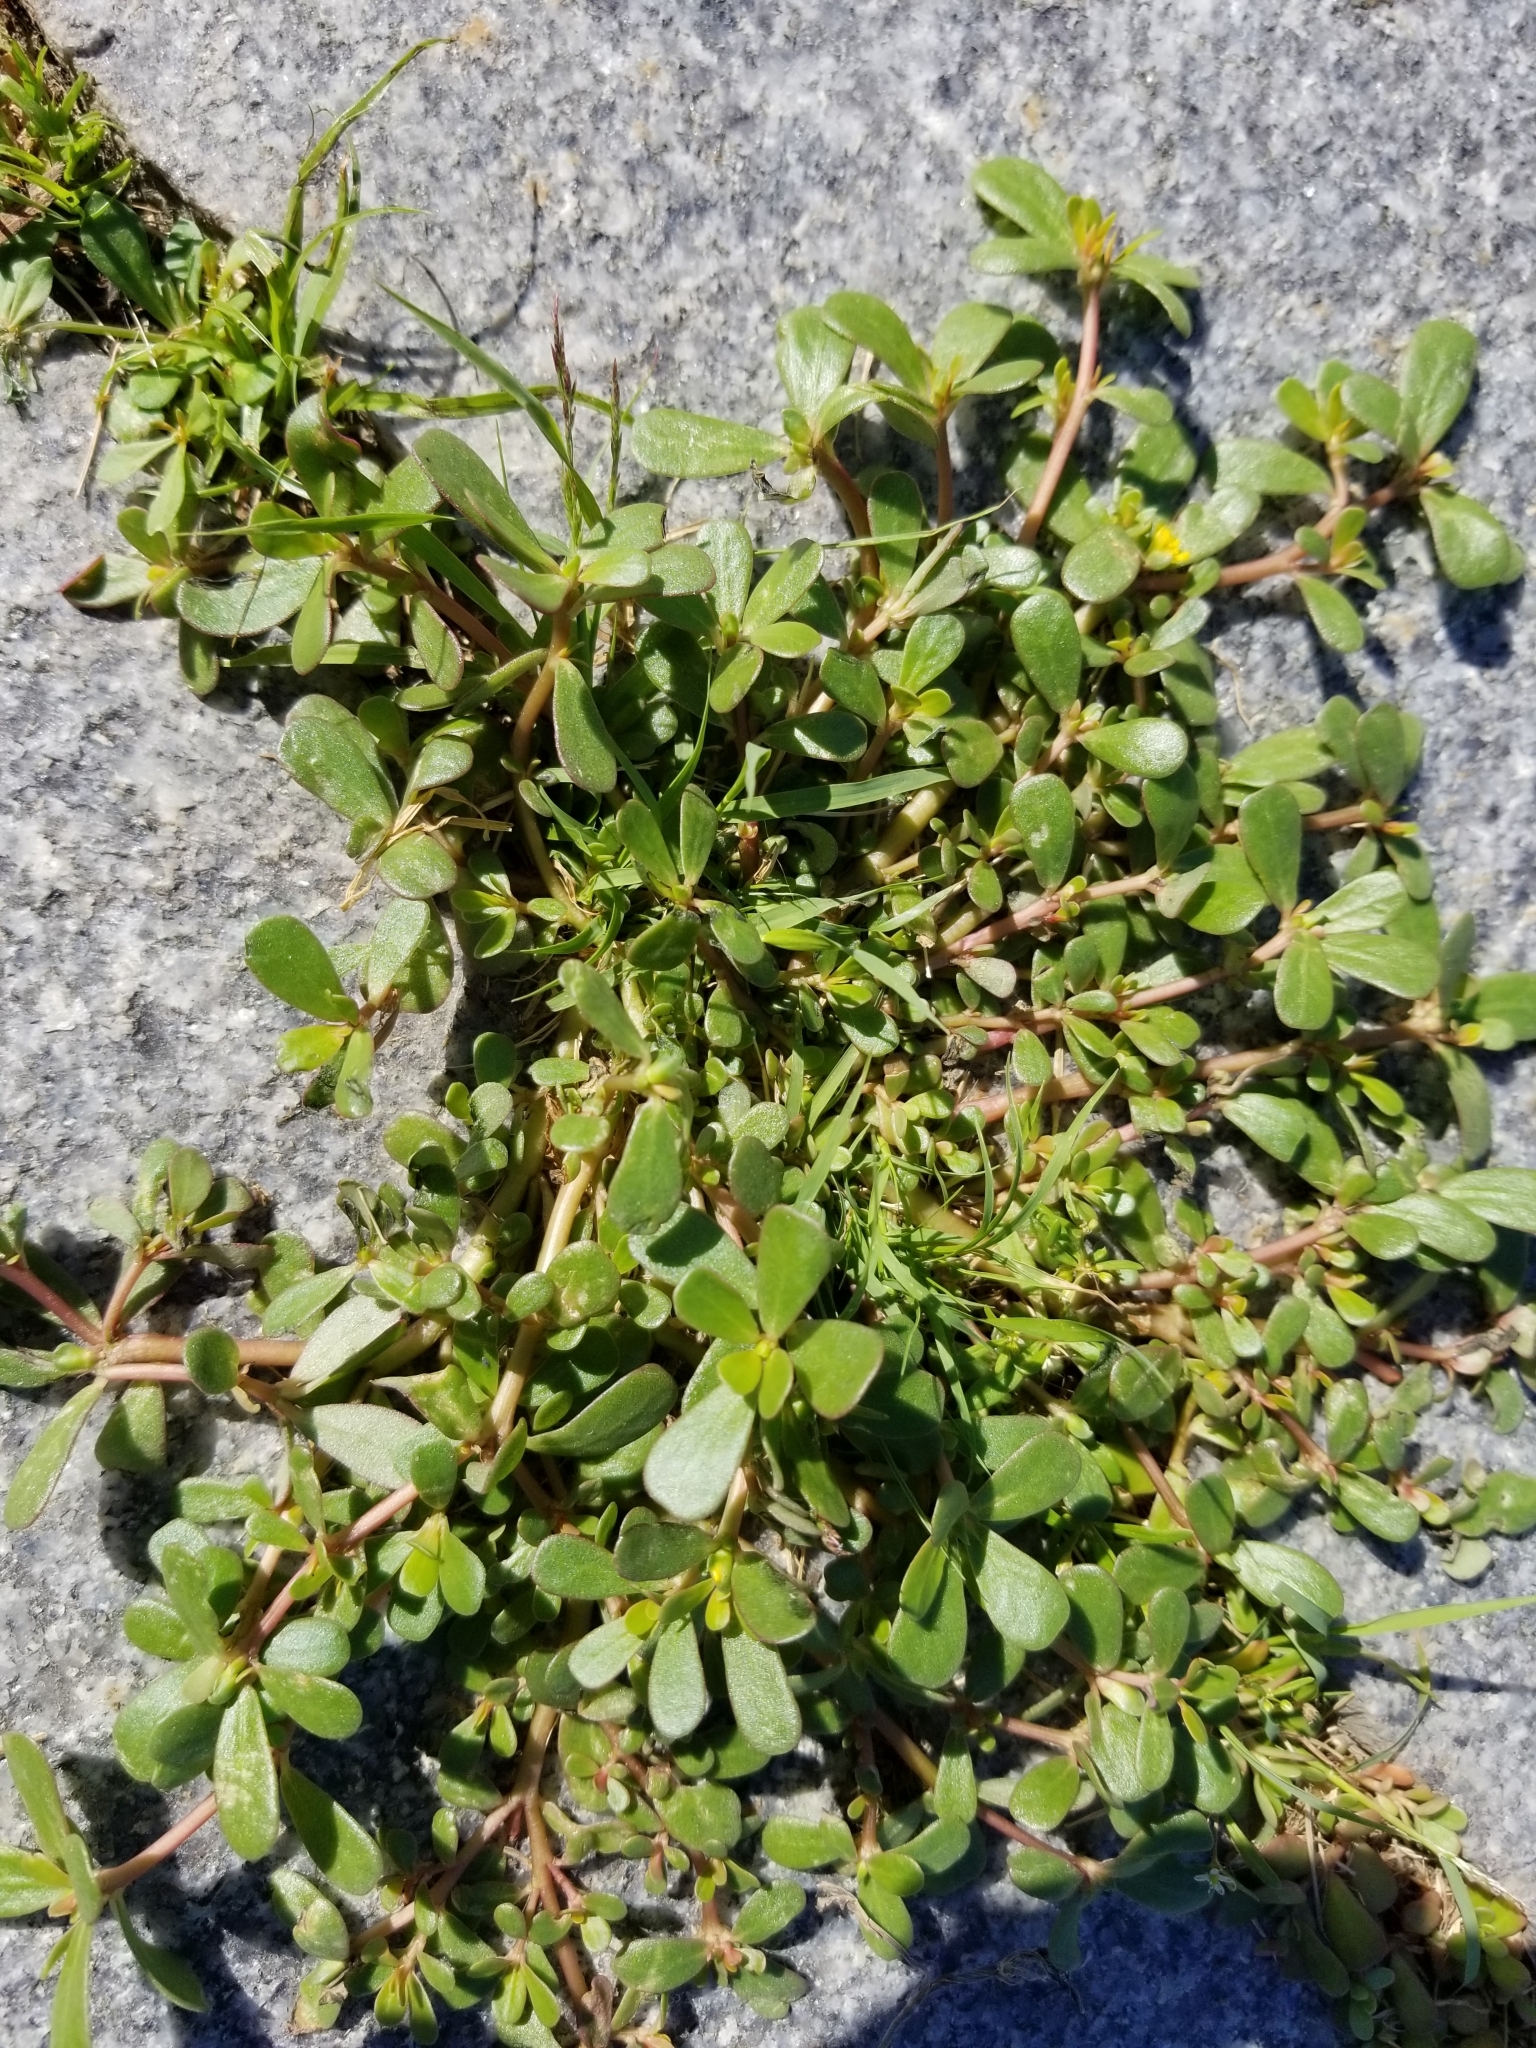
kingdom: Plantae
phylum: Tracheophyta
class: Magnoliopsida
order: Caryophyllales
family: Portulacaceae
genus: Portulaca
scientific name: Portulaca oleracea
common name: Common purslane
